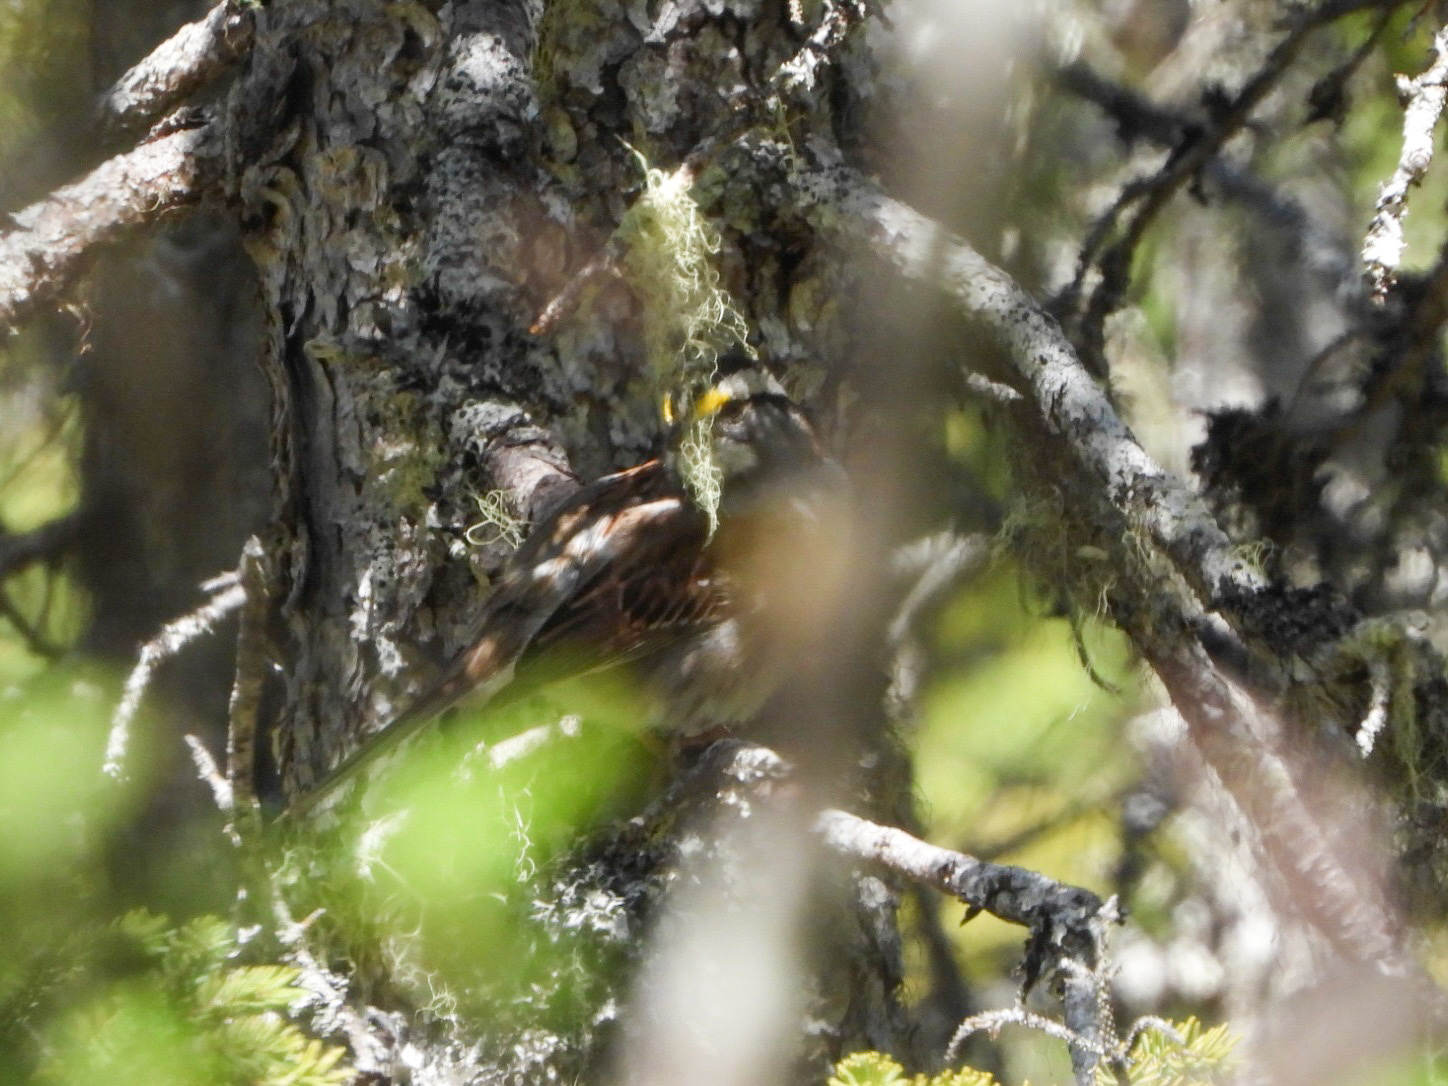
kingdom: Animalia
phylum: Chordata
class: Aves
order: Passeriformes
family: Passerellidae
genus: Zonotrichia
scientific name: Zonotrichia albicollis
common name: White-throated sparrow
